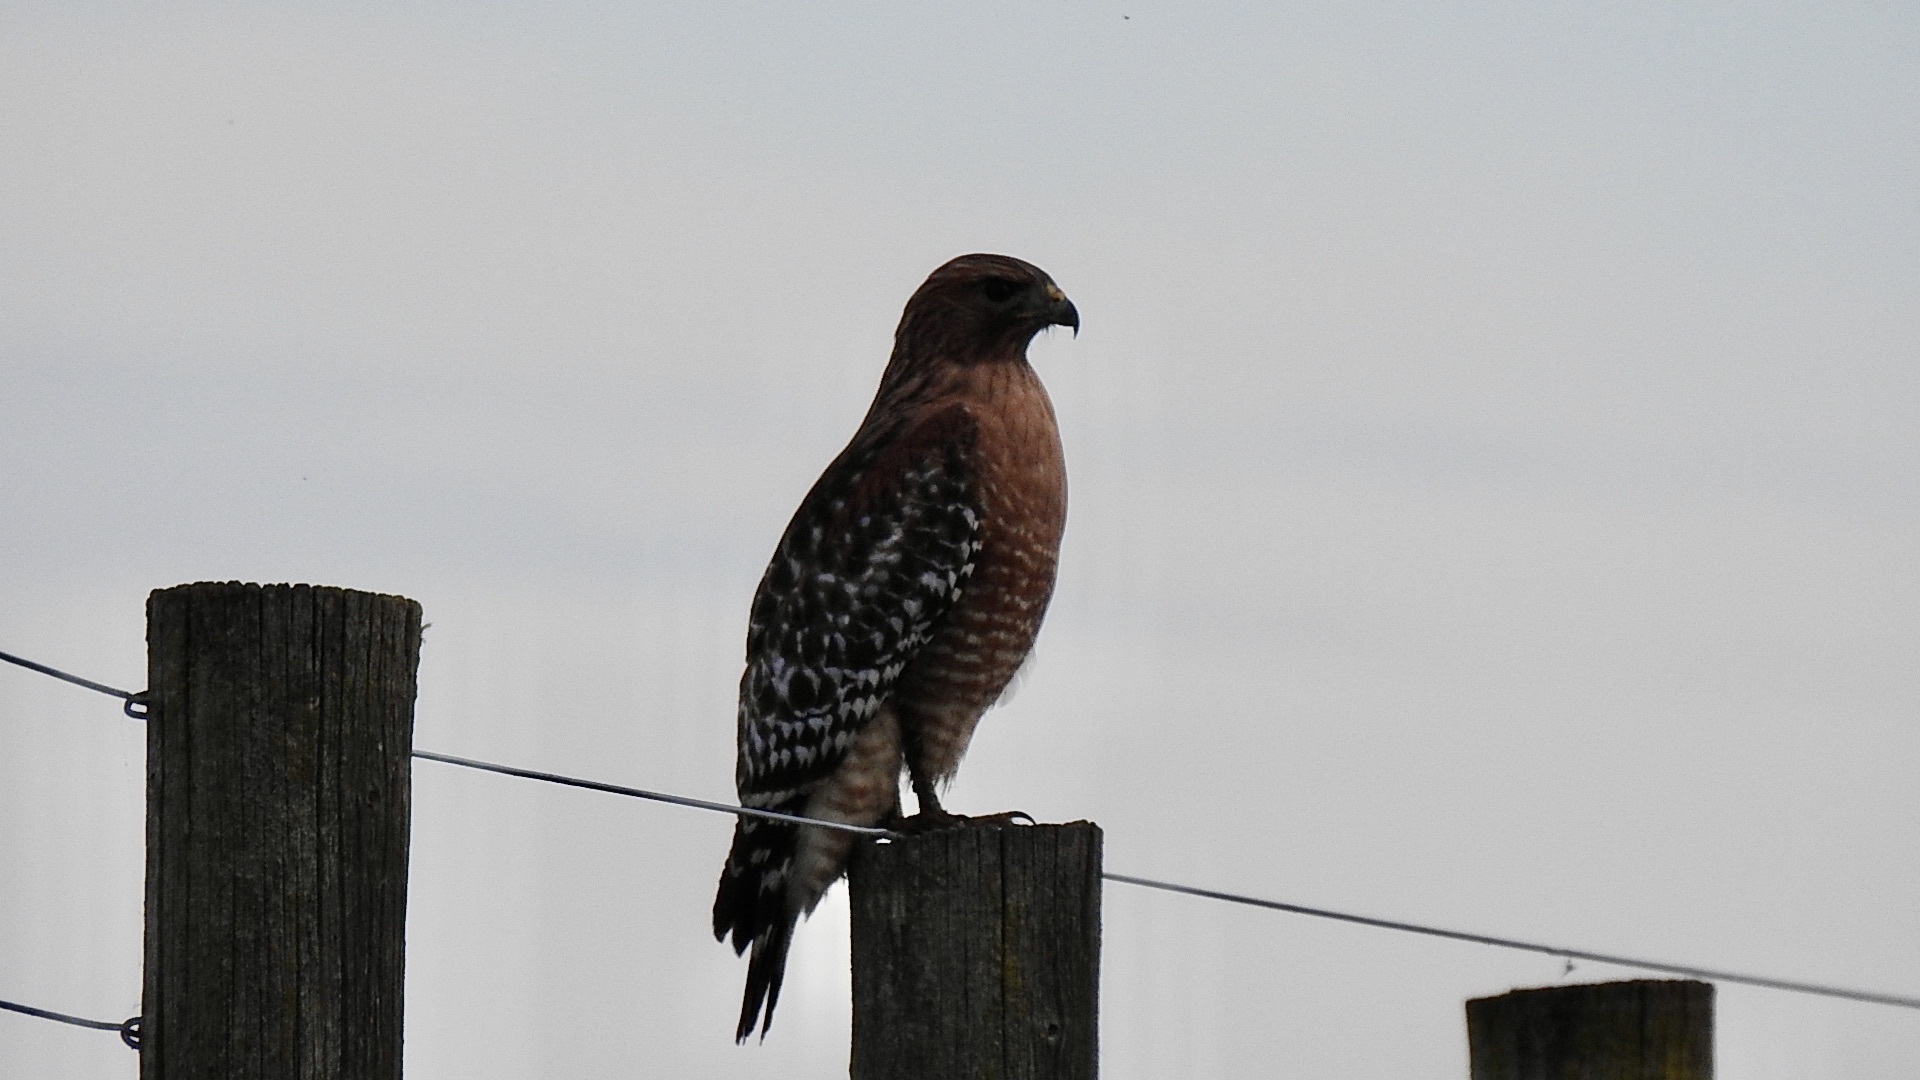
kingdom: Animalia
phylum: Chordata
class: Aves
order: Accipitriformes
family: Accipitridae
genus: Buteo
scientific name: Buteo lineatus
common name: Red-shouldered hawk
